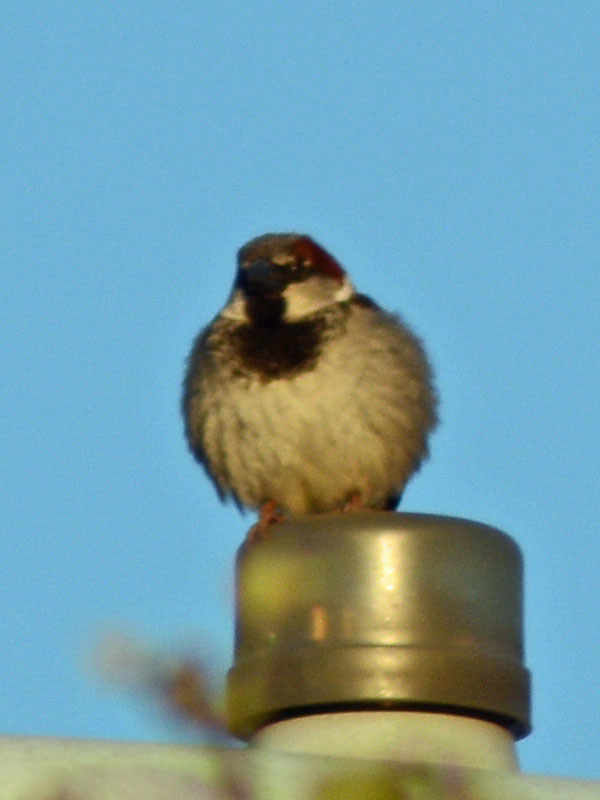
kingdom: Animalia
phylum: Chordata
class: Aves
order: Passeriformes
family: Passeridae
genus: Passer
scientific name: Passer domesticus
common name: House sparrow
